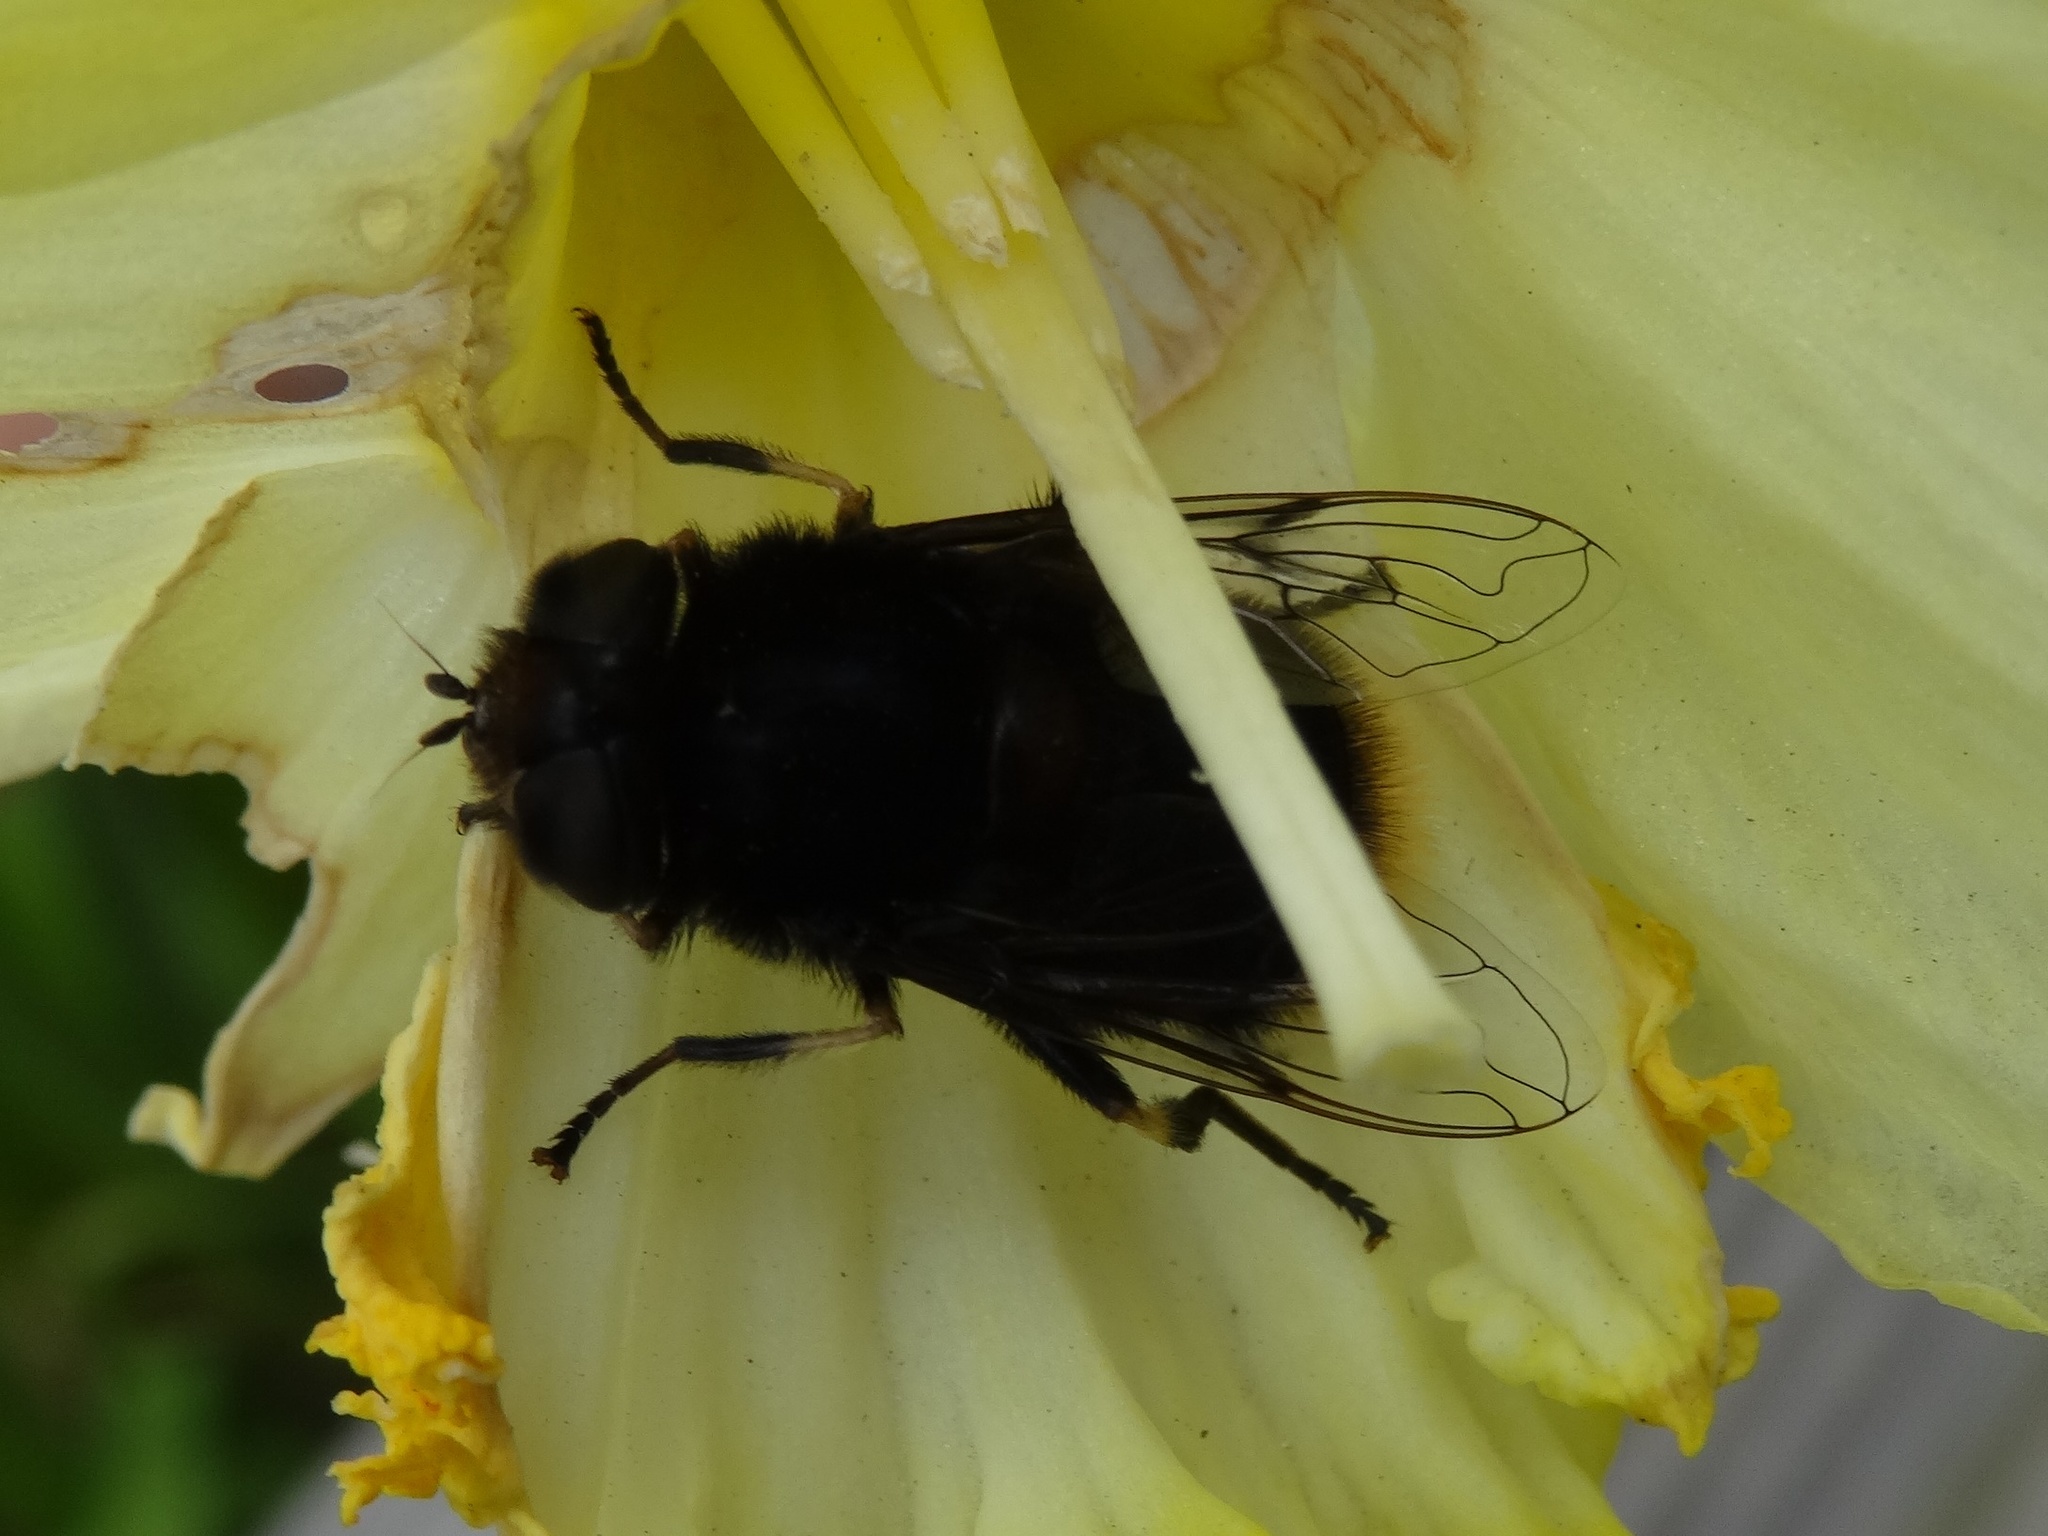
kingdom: Animalia
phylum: Arthropoda
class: Insecta
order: Diptera
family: Syrphidae
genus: Eristalis
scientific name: Eristalis intricaria
